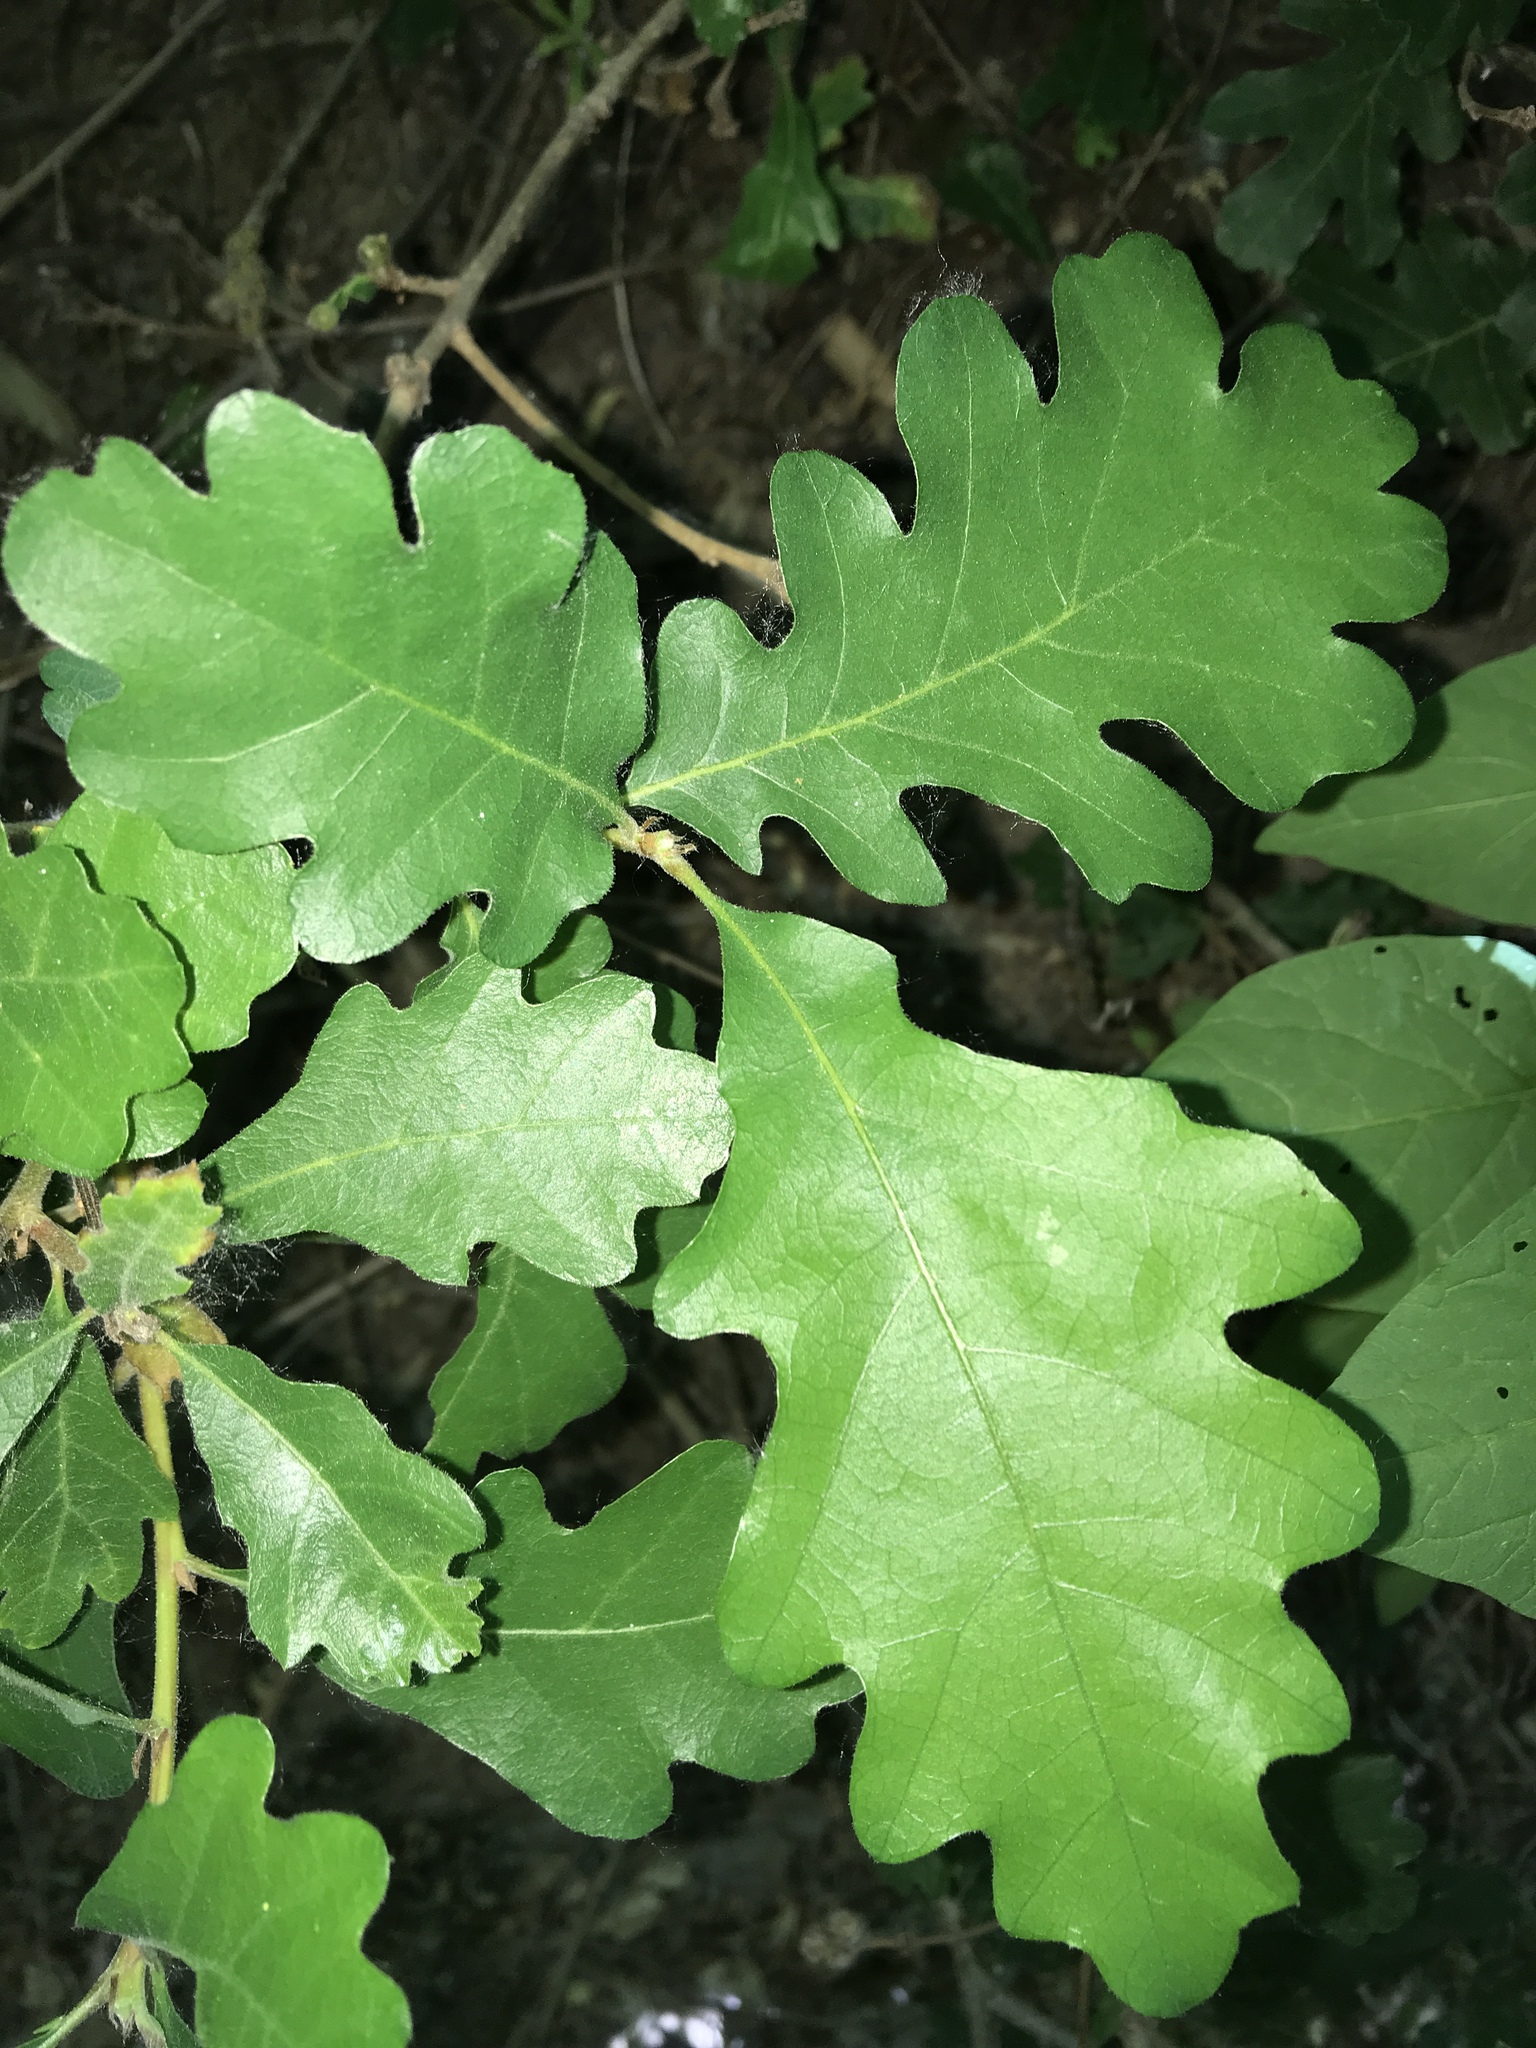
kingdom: Plantae
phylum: Tracheophyta
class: Magnoliopsida
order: Fagales
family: Fagaceae
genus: Quercus
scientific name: Quercus gambelii
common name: Gambel oak
